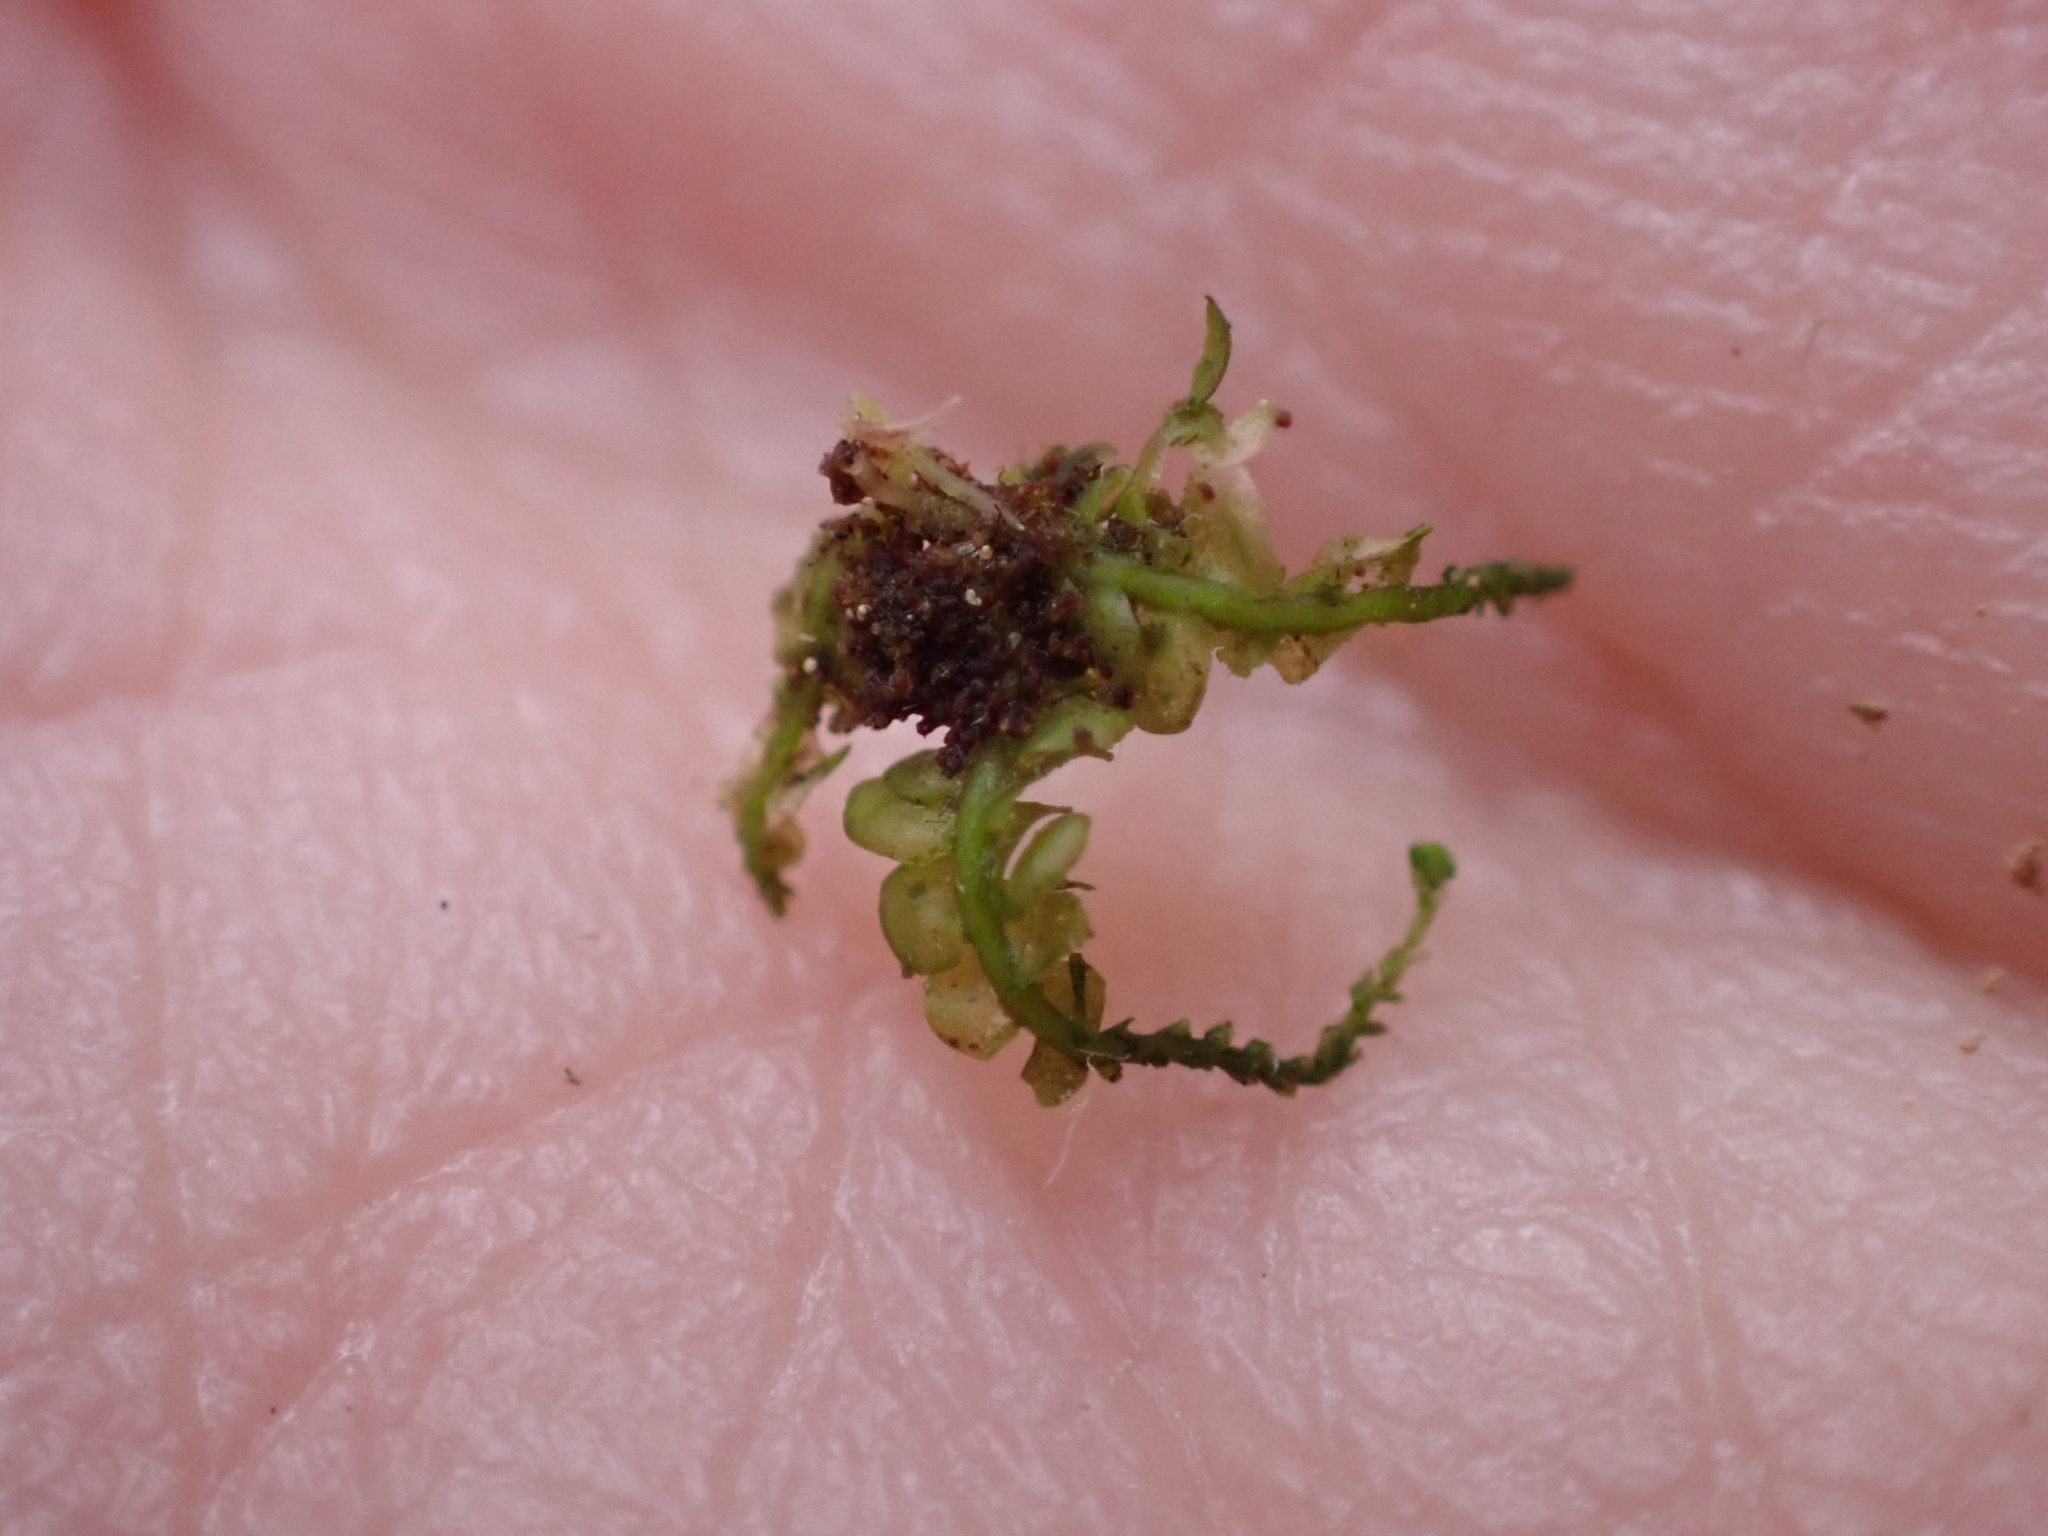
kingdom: Plantae
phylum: Marchantiophyta
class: Jungermanniopsida
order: Jungermanniales
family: Lepidoziaceae
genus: Lepidozia
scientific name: Lepidozia reptans
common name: Creeping fingerwort
